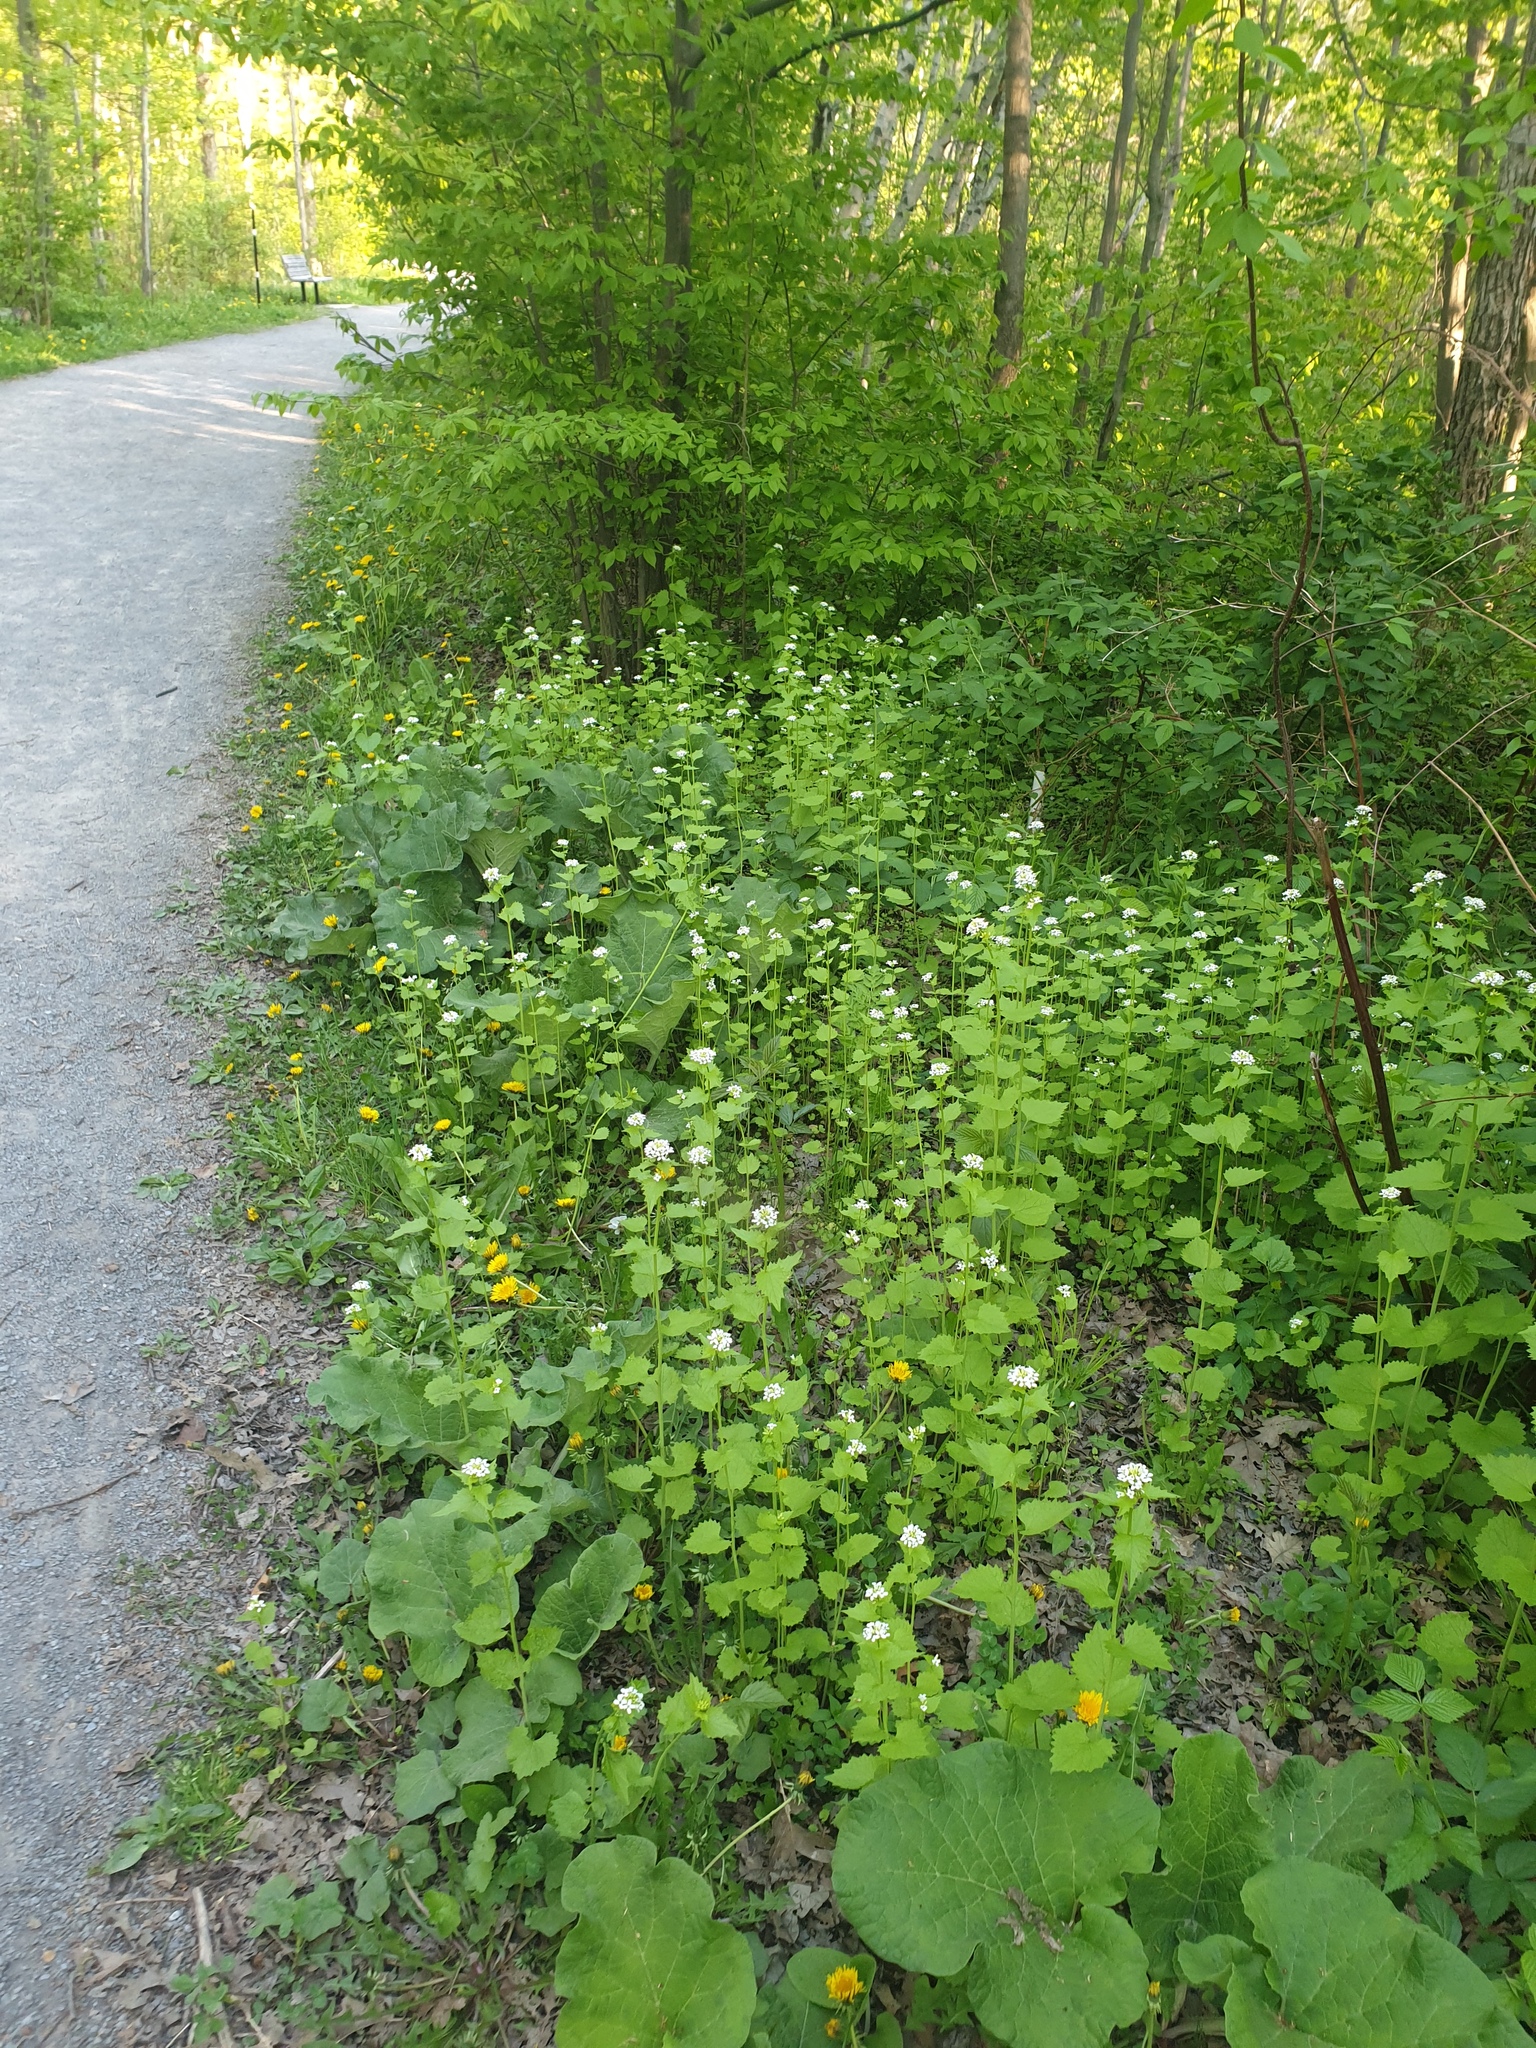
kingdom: Plantae
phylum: Tracheophyta
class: Magnoliopsida
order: Brassicales
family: Brassicaceae
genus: Alliaria
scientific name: Alliaria petiolata
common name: Garlic mustard
